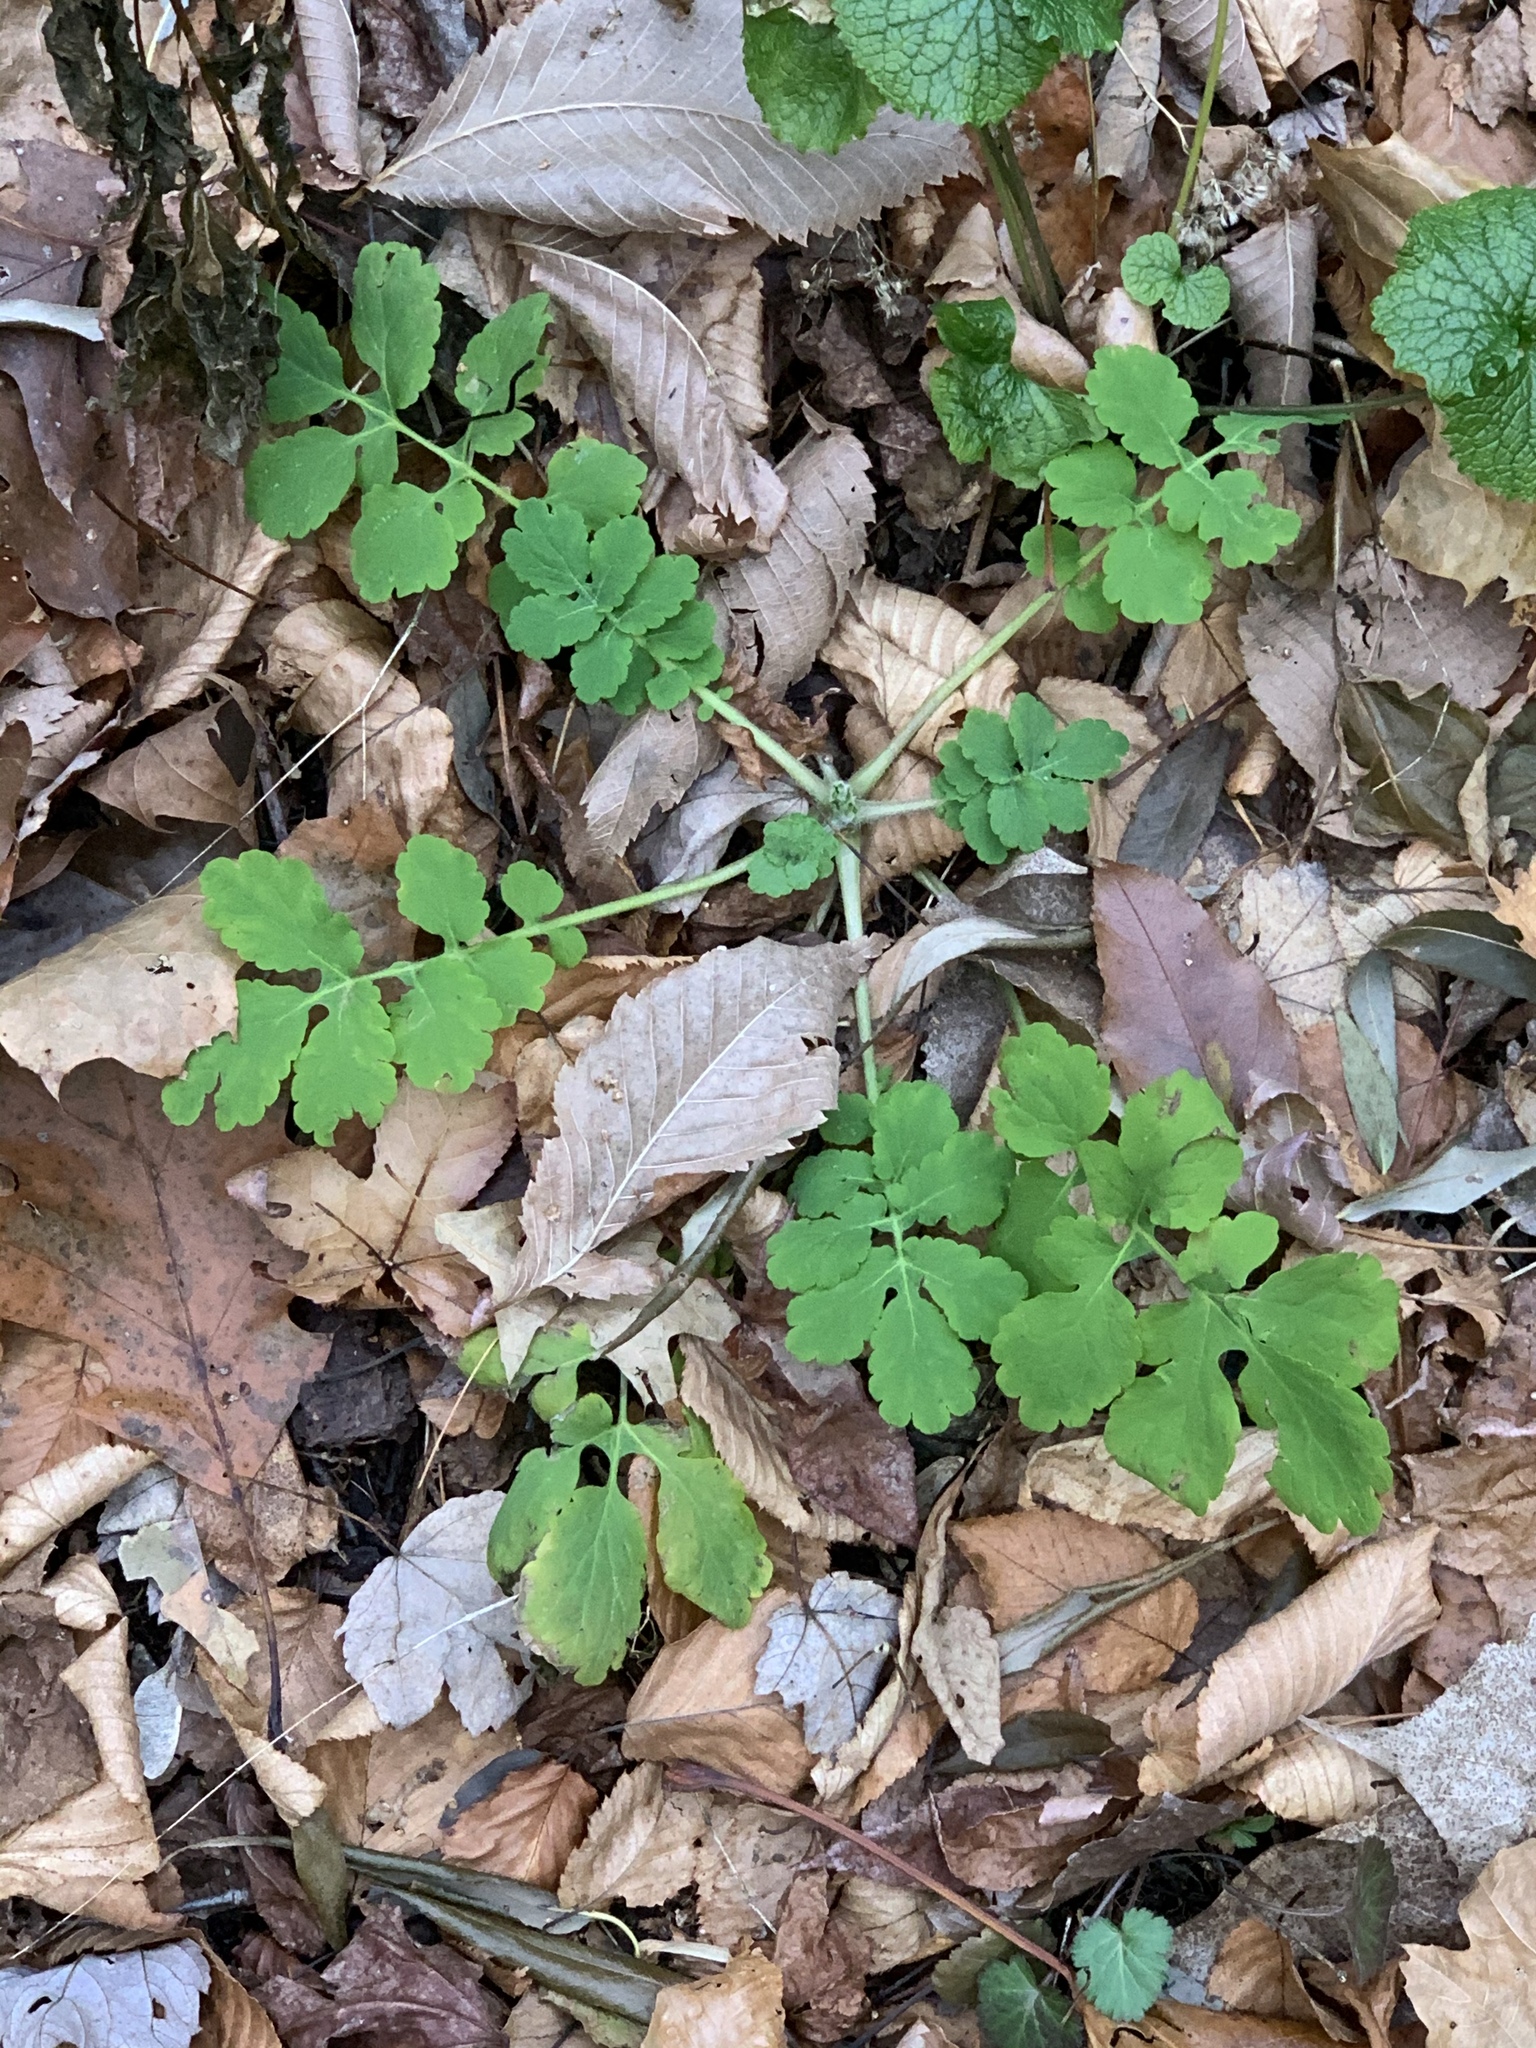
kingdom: Plantae
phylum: Tracheophyta
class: Magnoliopsida
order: Ranunculales
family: Papaveraceae
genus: Chelidonium
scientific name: Chelidonium majus
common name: Greater celandine
